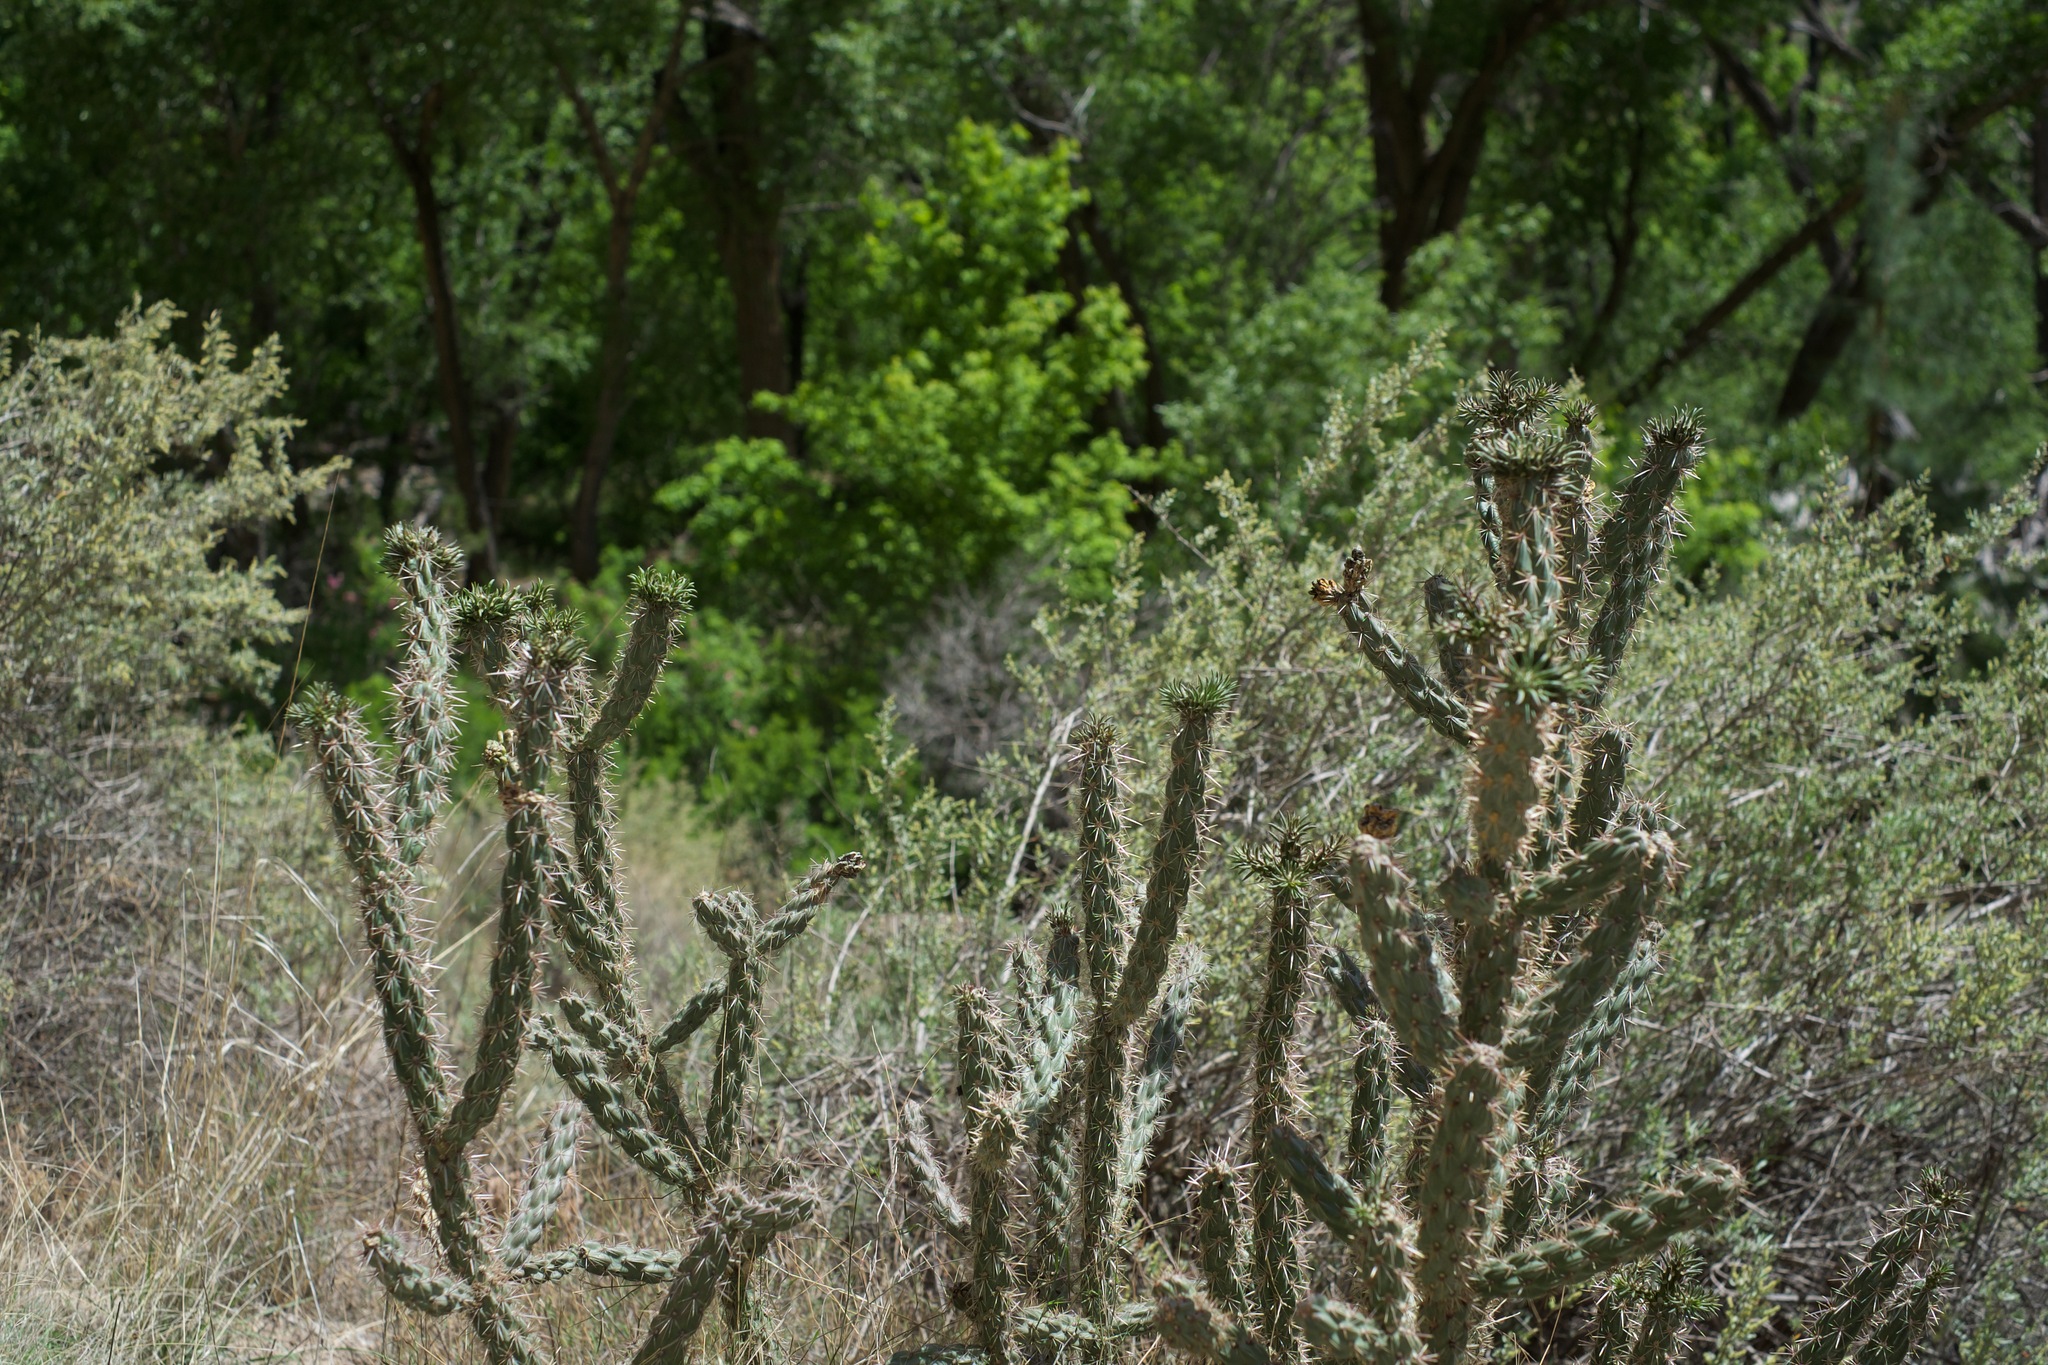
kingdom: Plantae
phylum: Tracheophyta
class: Magnoliopsida
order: Caryophyllales
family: Cactaceae
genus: Cylindropuntia
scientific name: Cylindropuntia imbricata
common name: Candelabrum cactus
